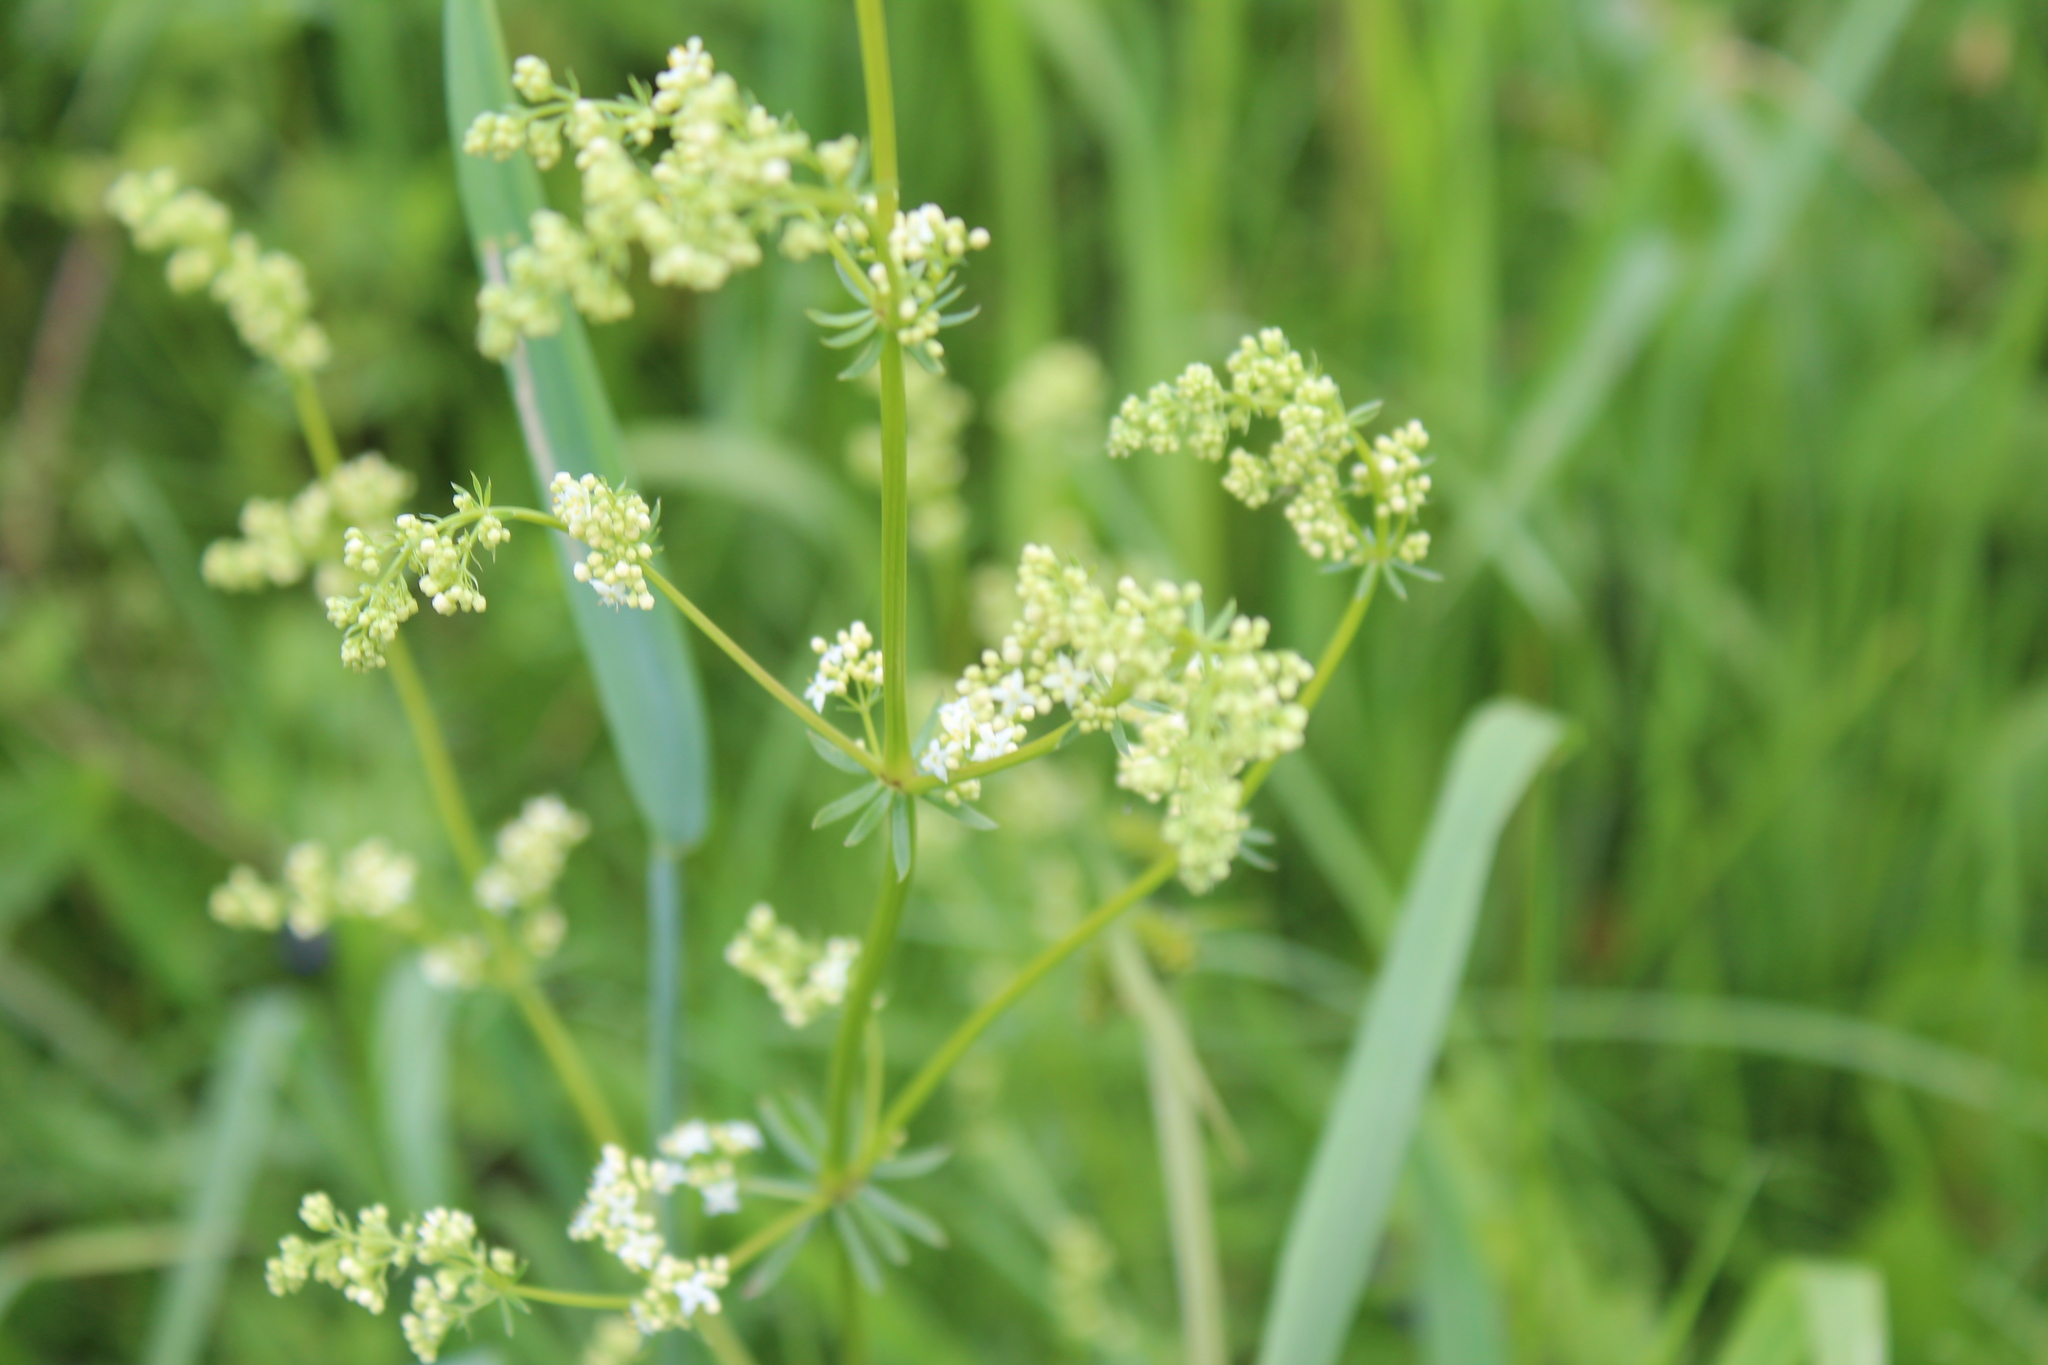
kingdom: Plantae
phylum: Tracheophyta
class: Magnoliopsida
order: Gentianales
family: Rubiaceae
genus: Galium
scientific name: Galium mollugo
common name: Hedge bedstraw
